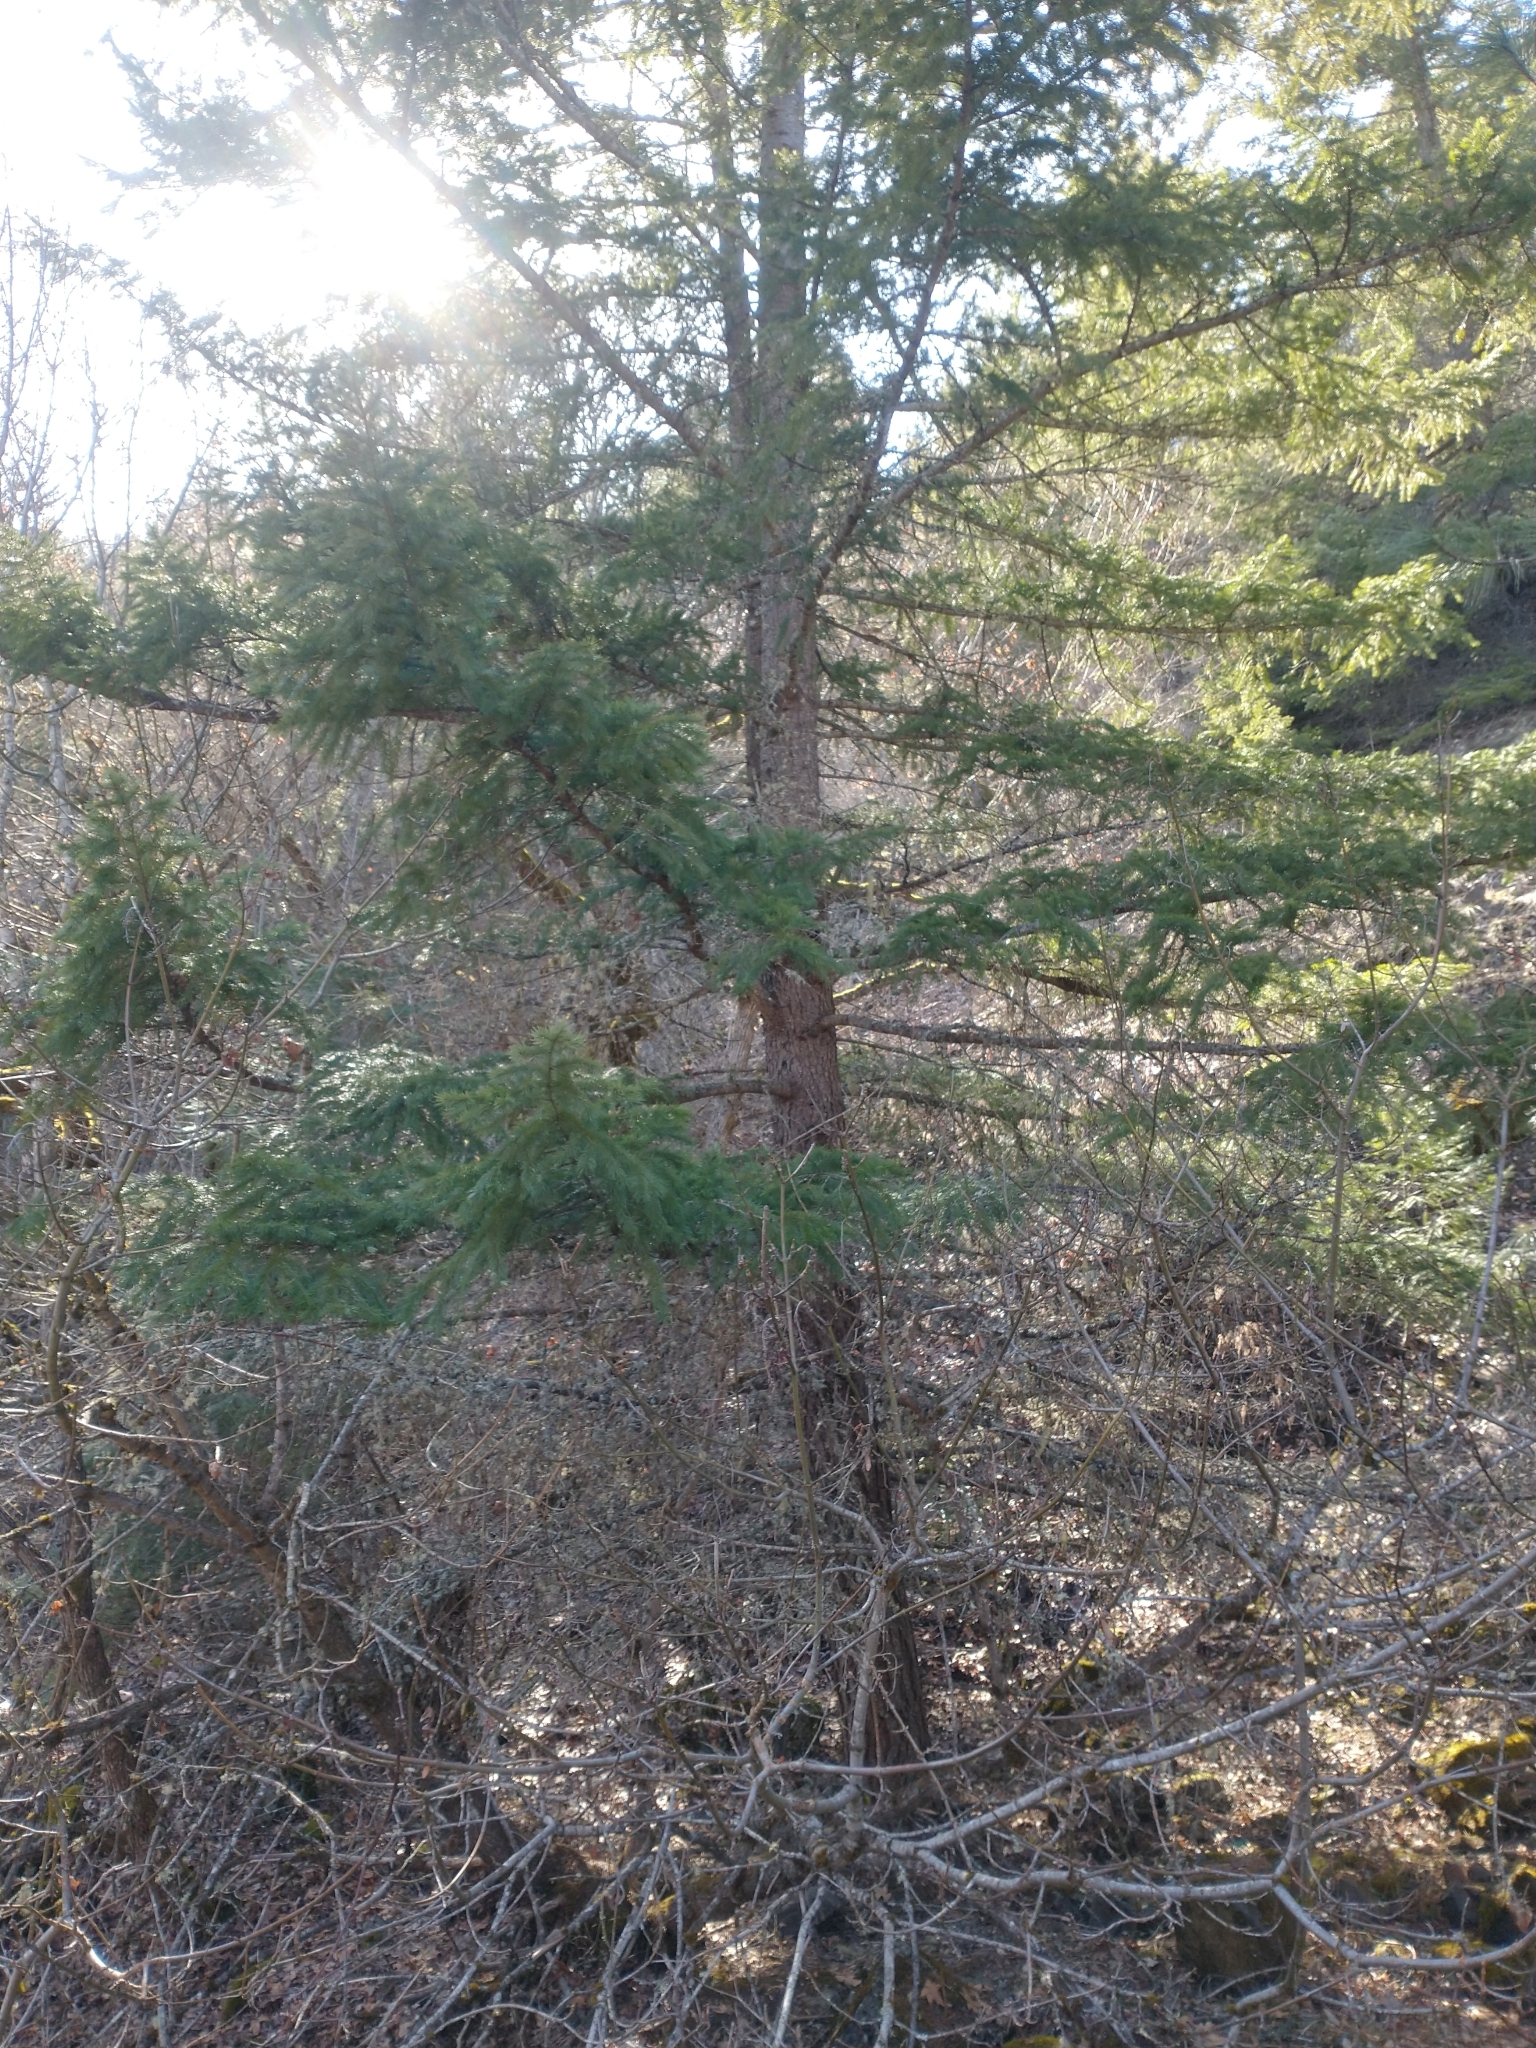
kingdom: Plantae
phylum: Tracheophyta
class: Pinopsida
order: Pinales
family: Pinaceae
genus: Pseudotsuga
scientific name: Pseudotsuga menziesii
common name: Douglas fir
